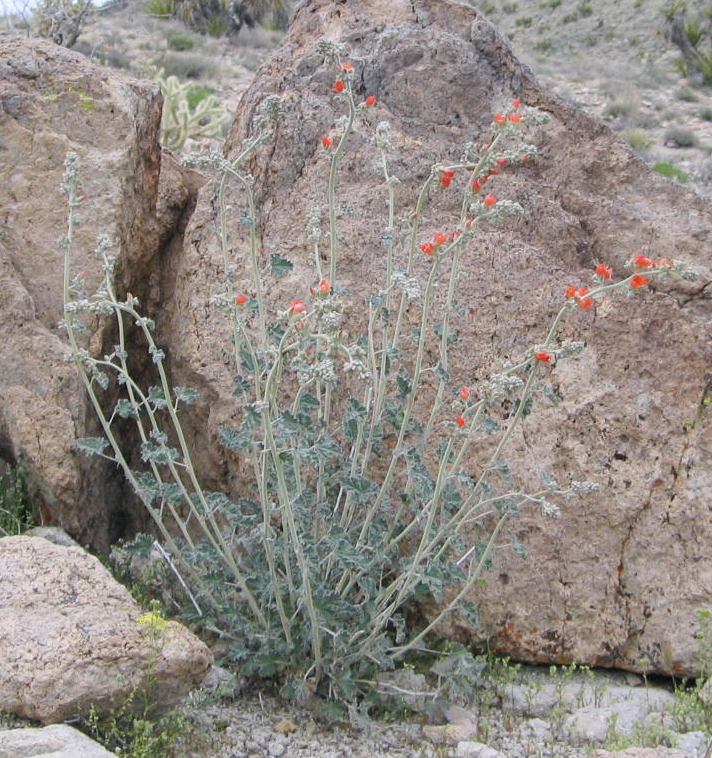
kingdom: Plantae
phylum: Tracheophyta
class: Magnoliopsida
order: Malvales
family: Malvaceae
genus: Sphaeralcea
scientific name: Sphaeralcea ambigua
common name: Apricot globe-mallow
